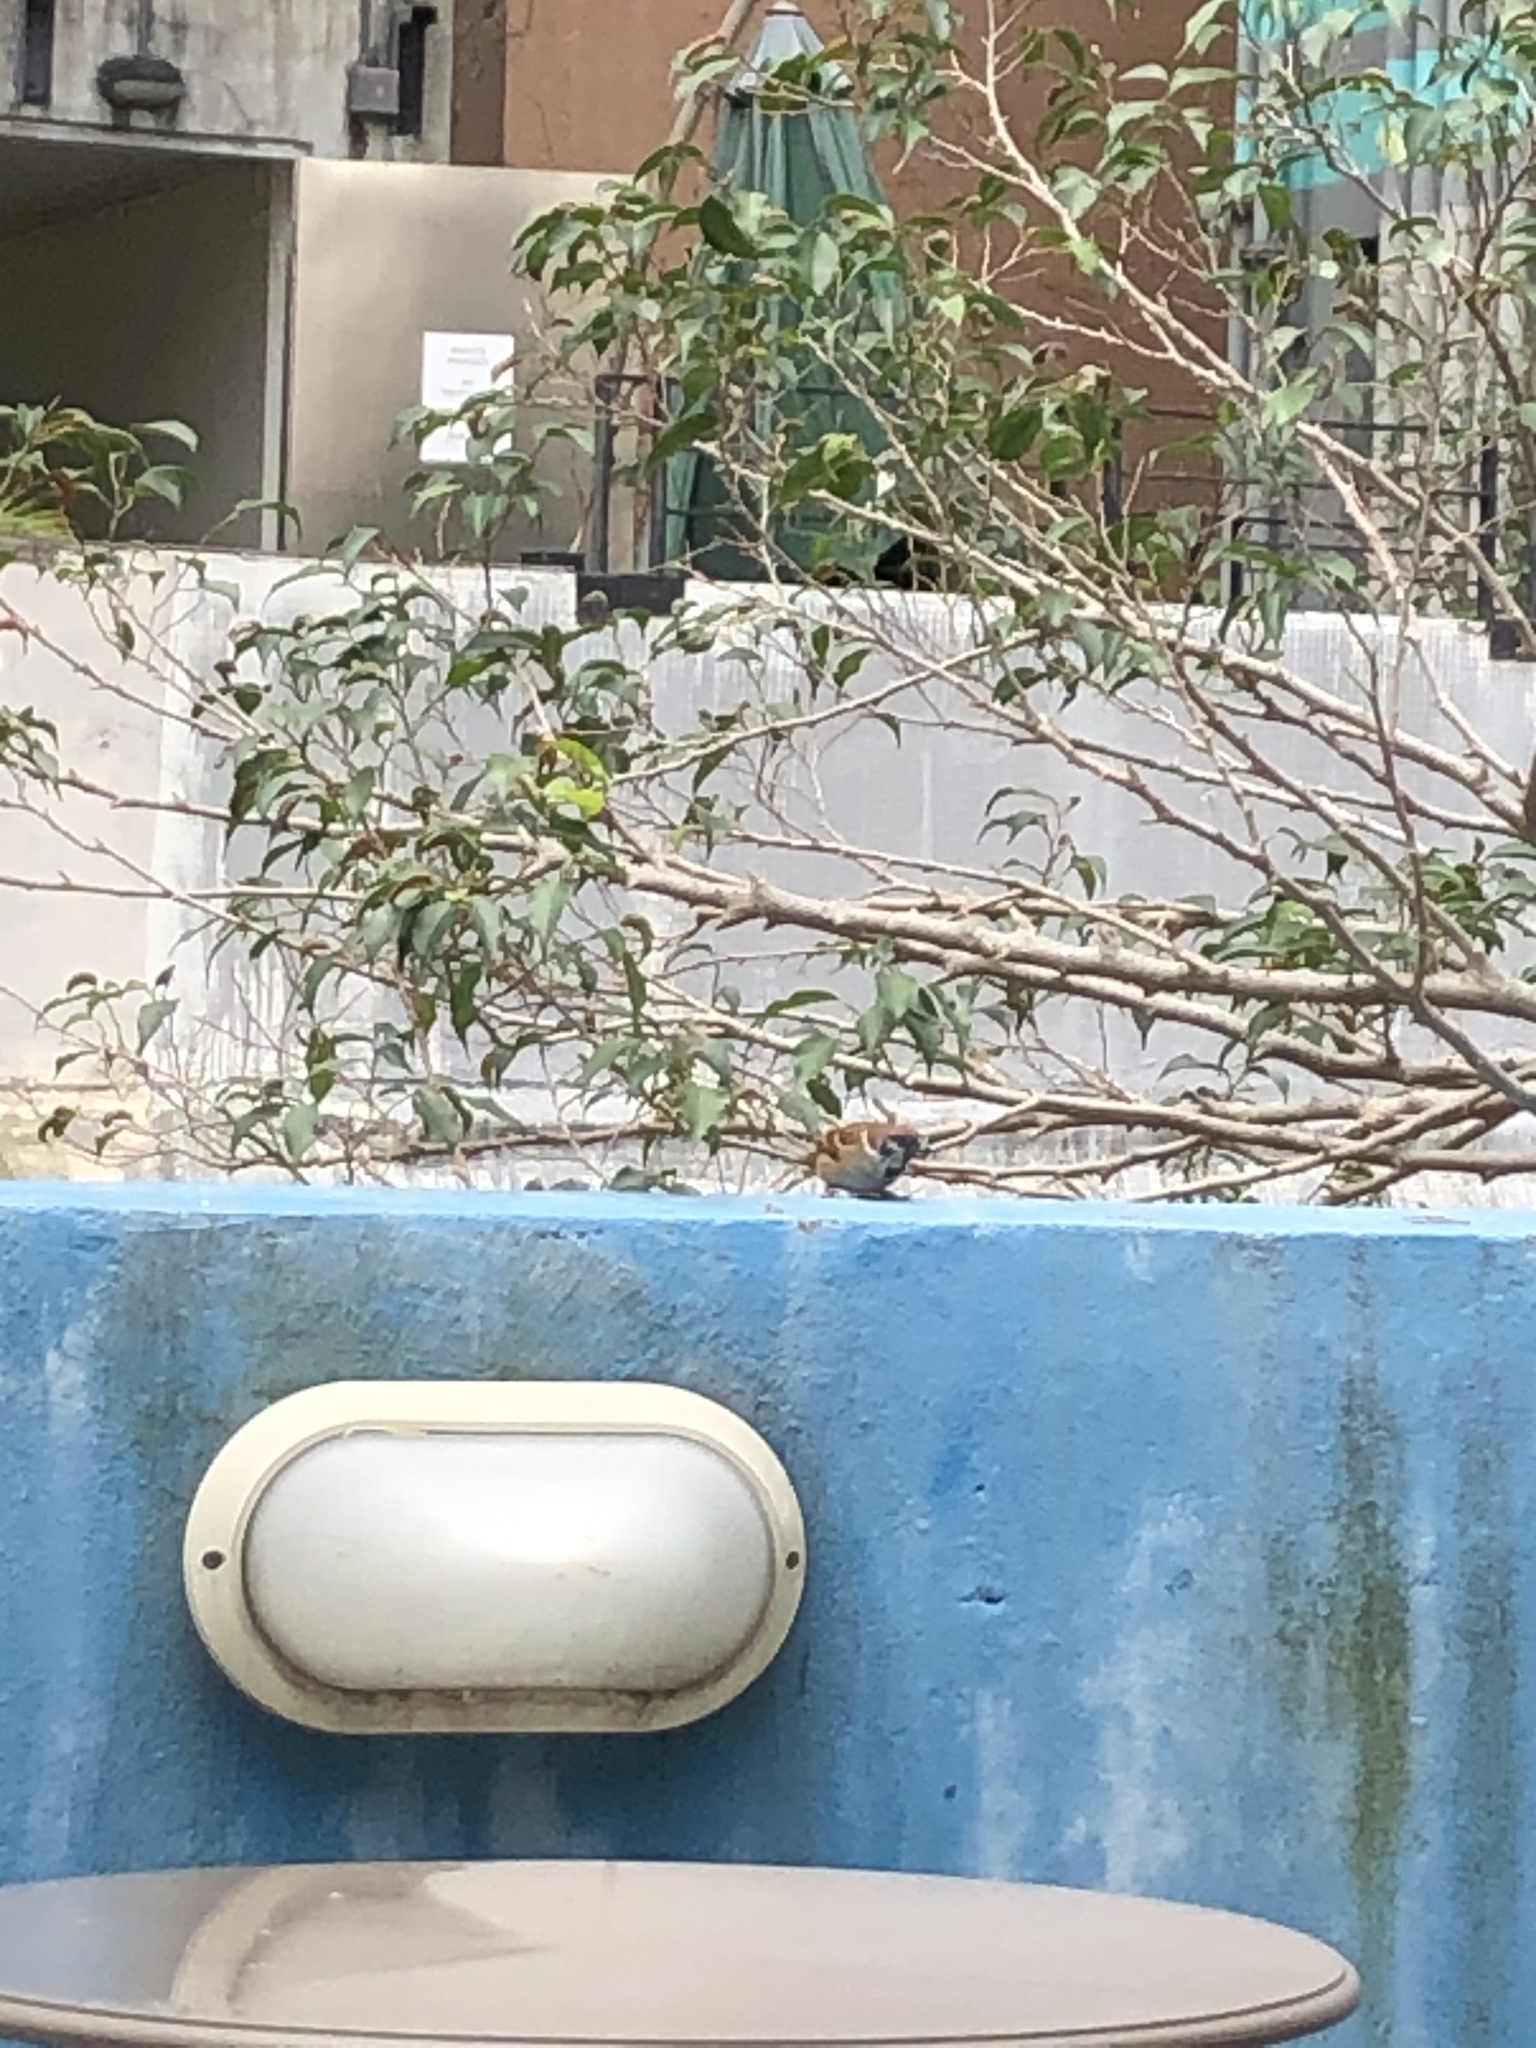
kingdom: Animalia
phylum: Chordata
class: Aves
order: Passeriformes
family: Passeridae
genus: Passer
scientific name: Passer montanus
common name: Eurasian tree sparrow
